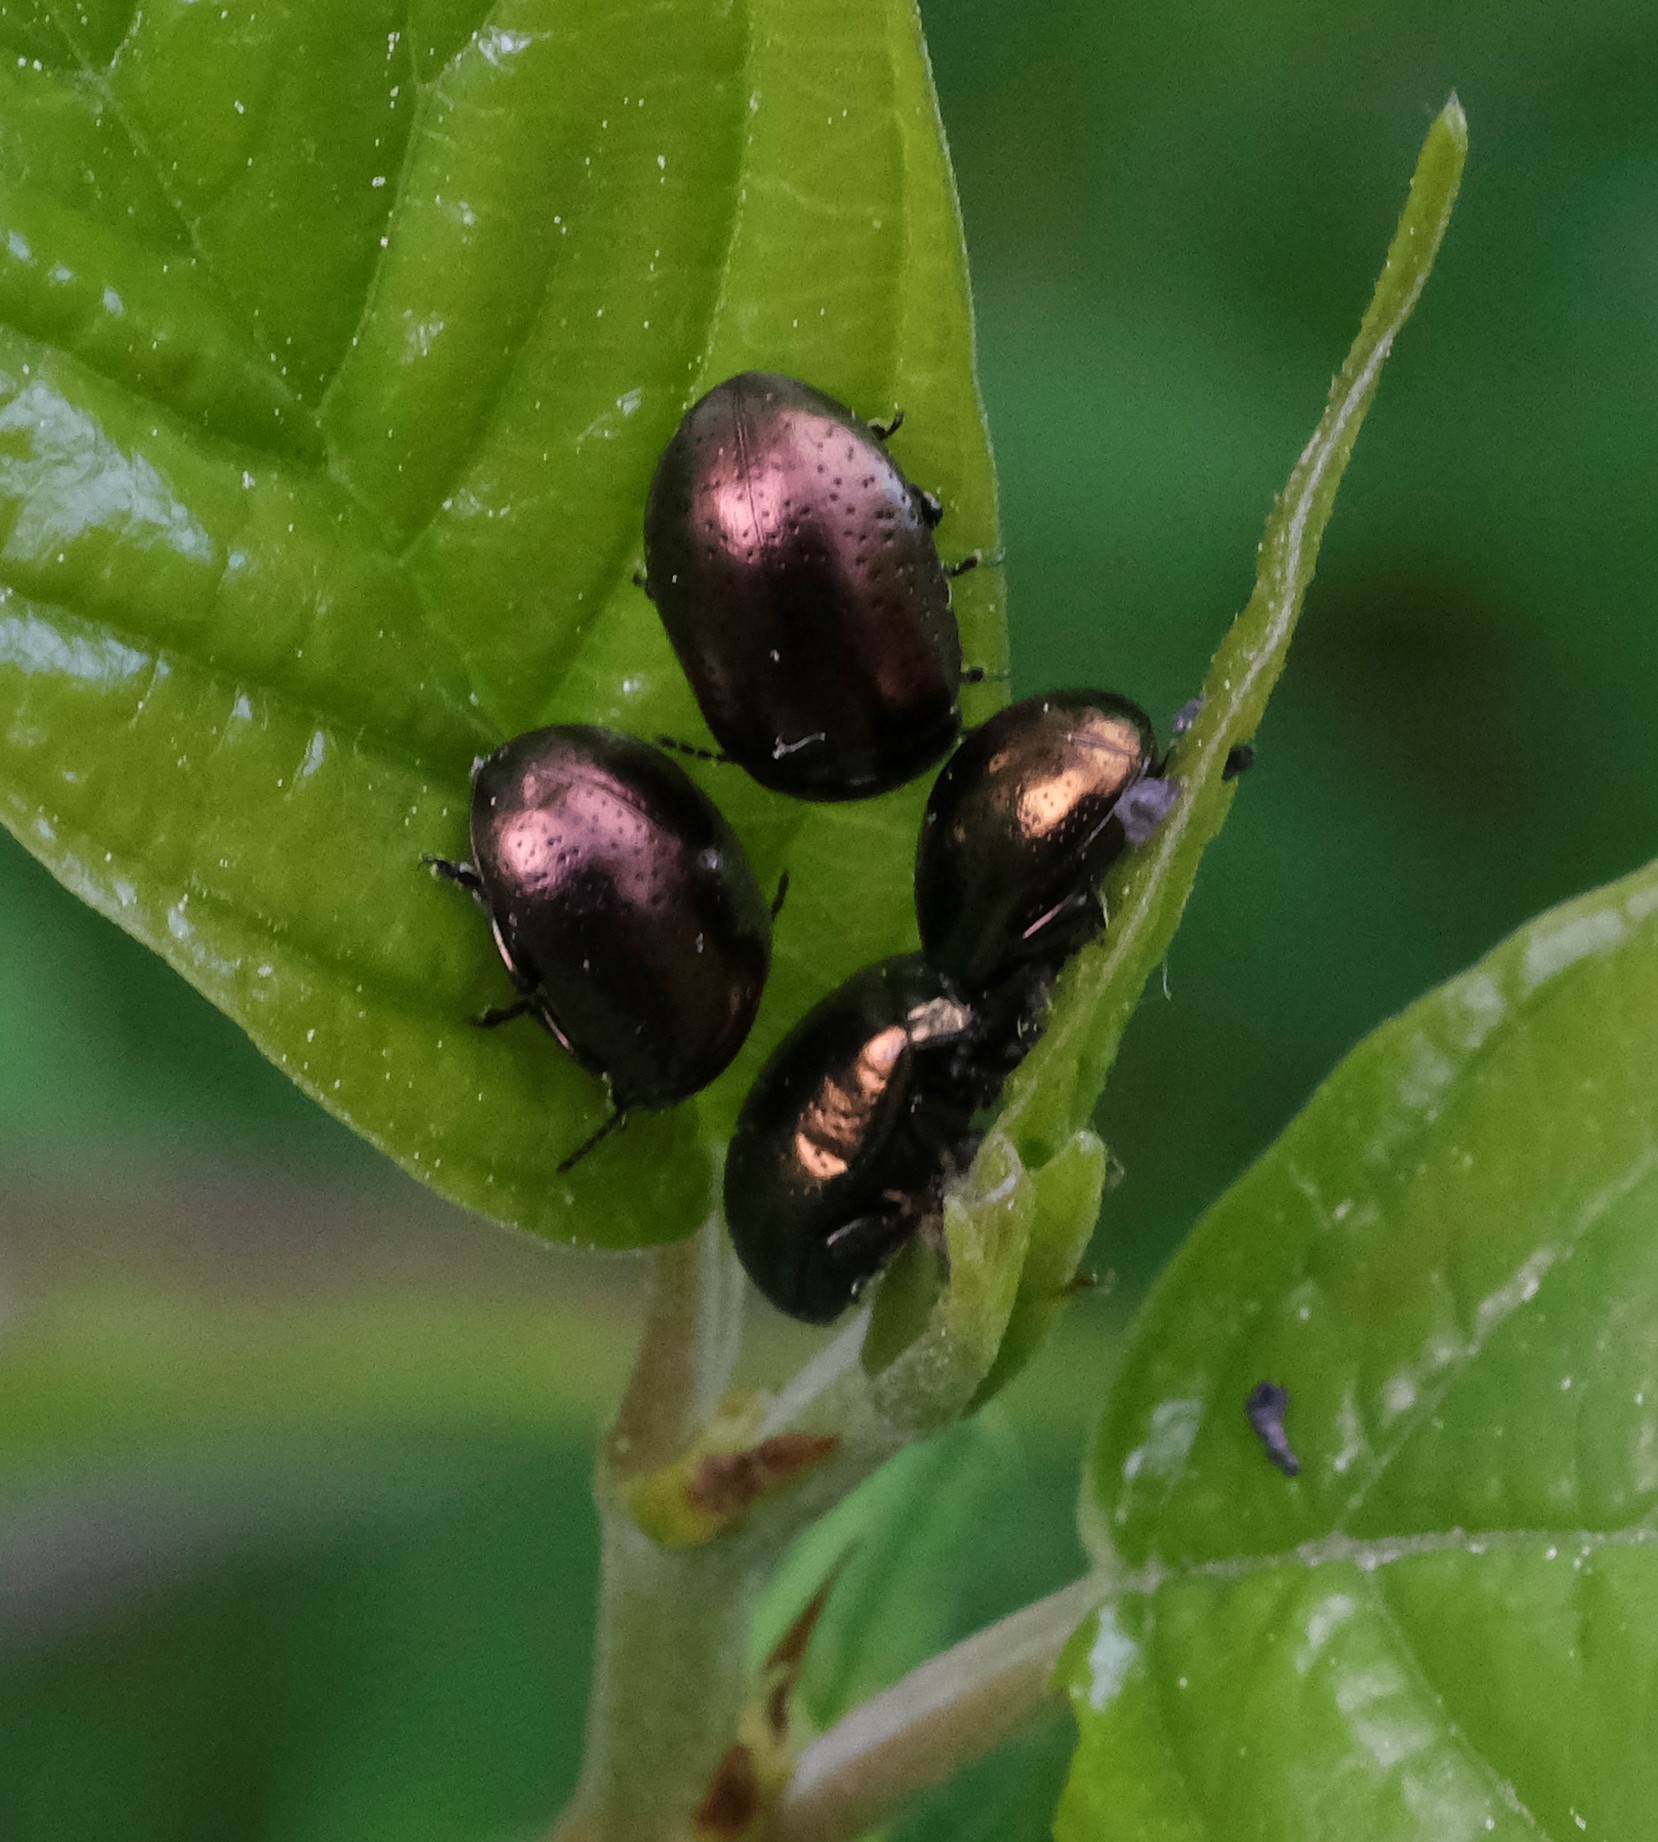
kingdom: Animalia
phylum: Arthropoda
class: Insecta
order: Coleoptera
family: Chrysomelidae
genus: Chrysolina
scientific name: Chrysolina hyperici
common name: St. johnswort beetle
